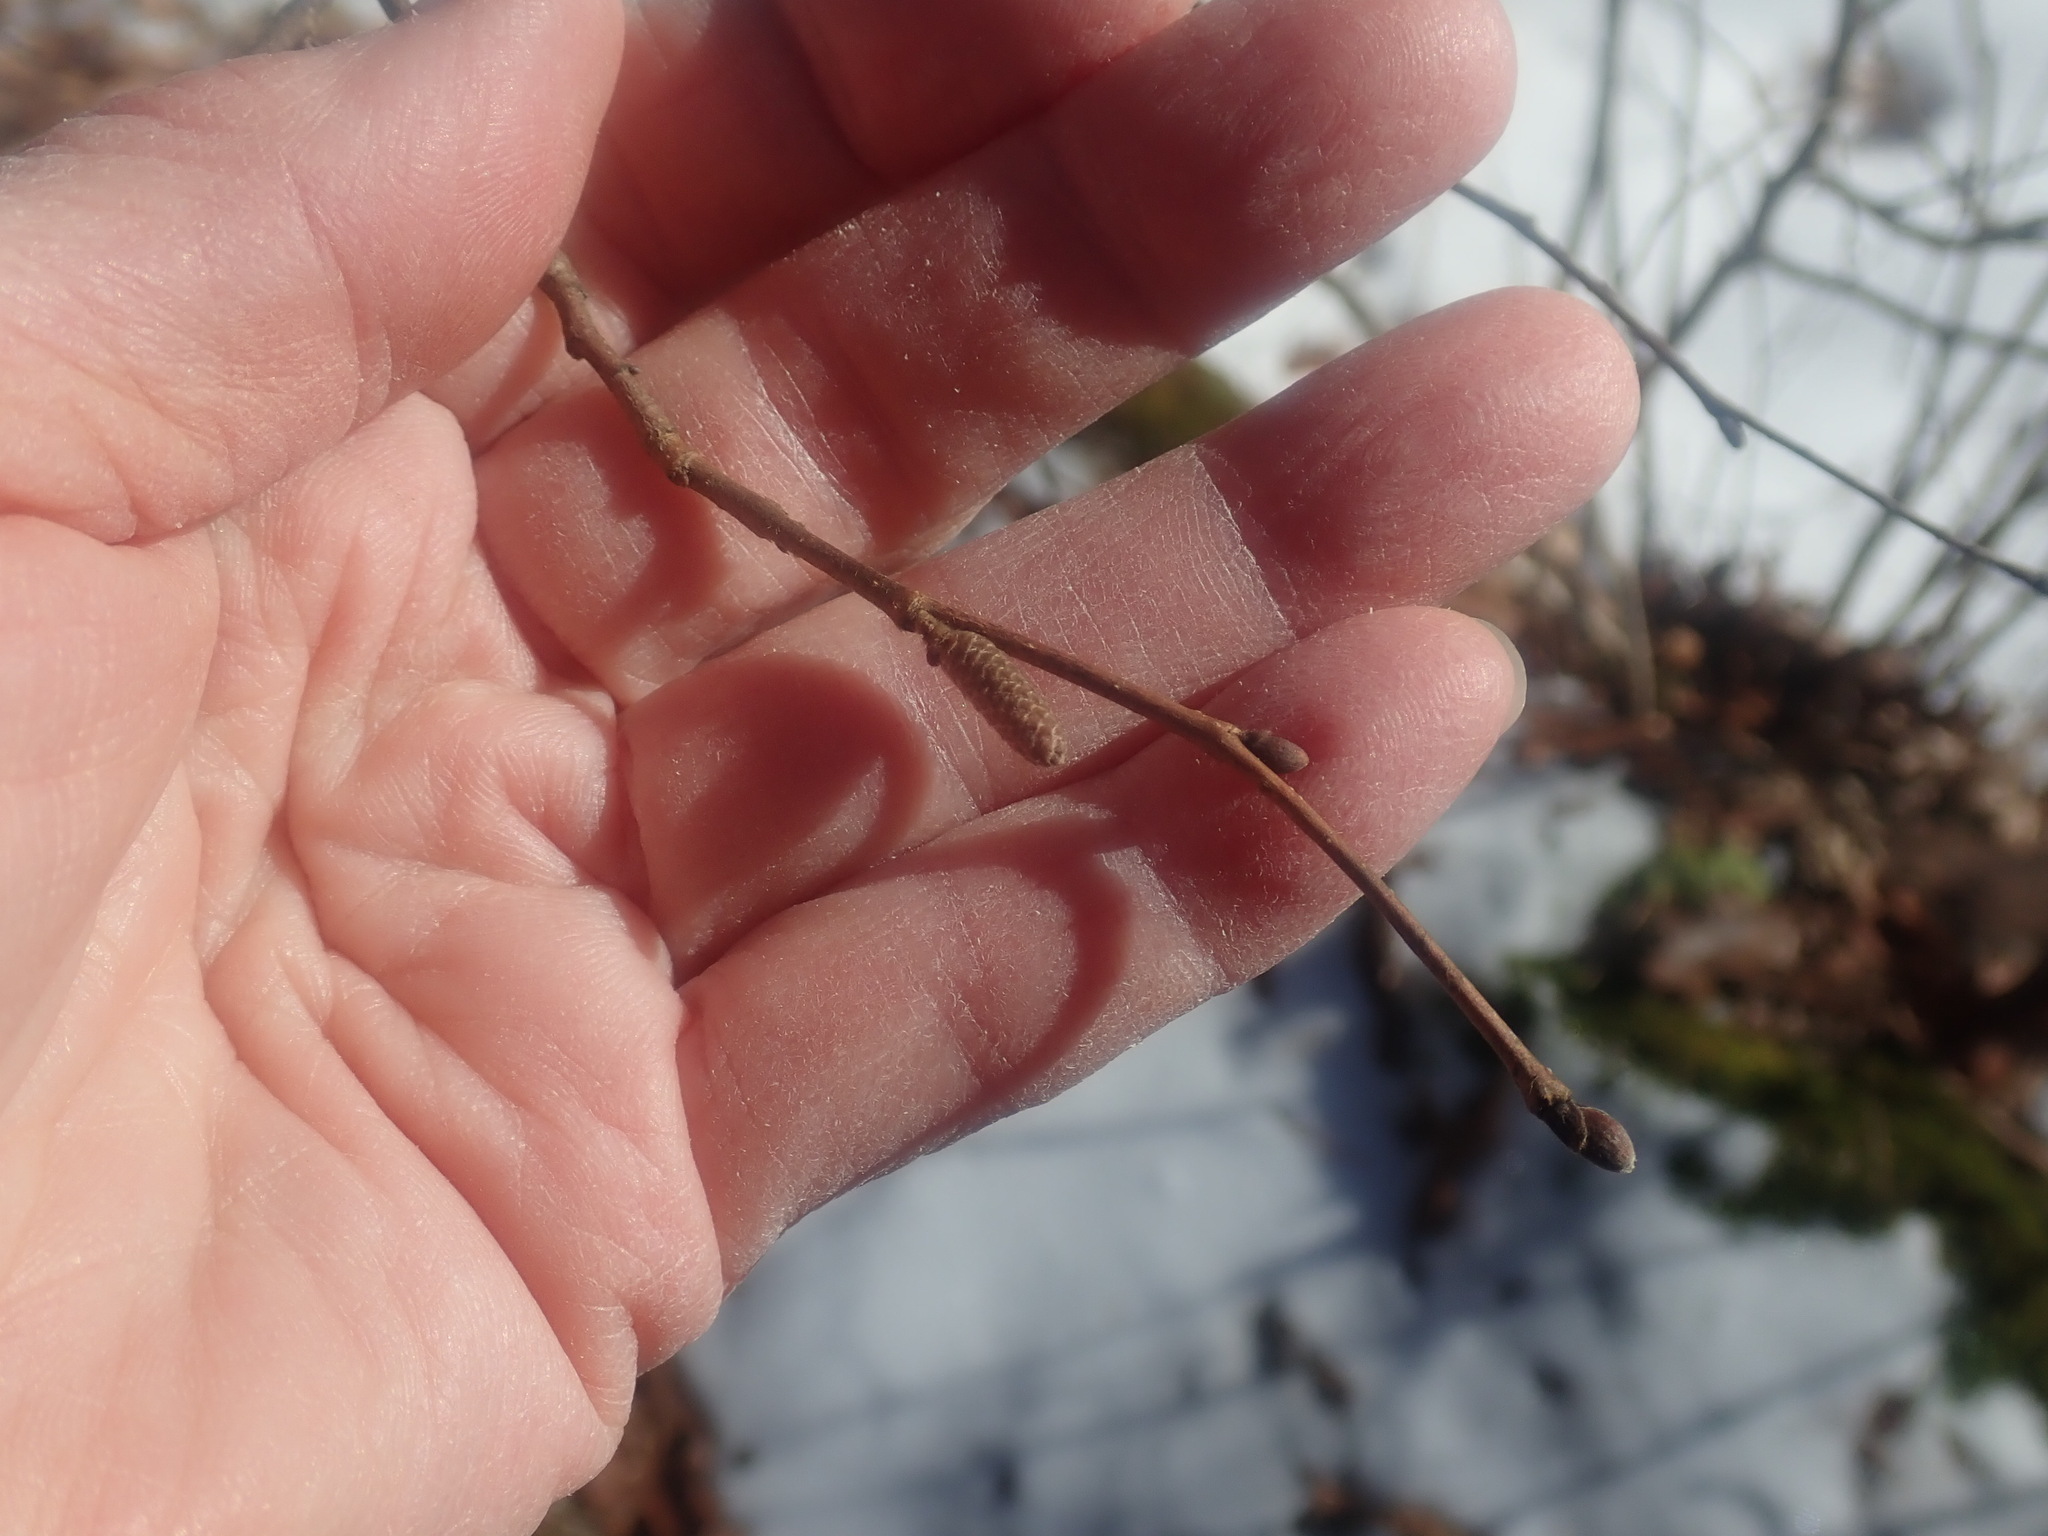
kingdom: Plantae
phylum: Tracheophyta
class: Magnoliopsida
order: Fagales
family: Betulaceae
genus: Corylus
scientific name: Corylus cornuta
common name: Beaked hazel
